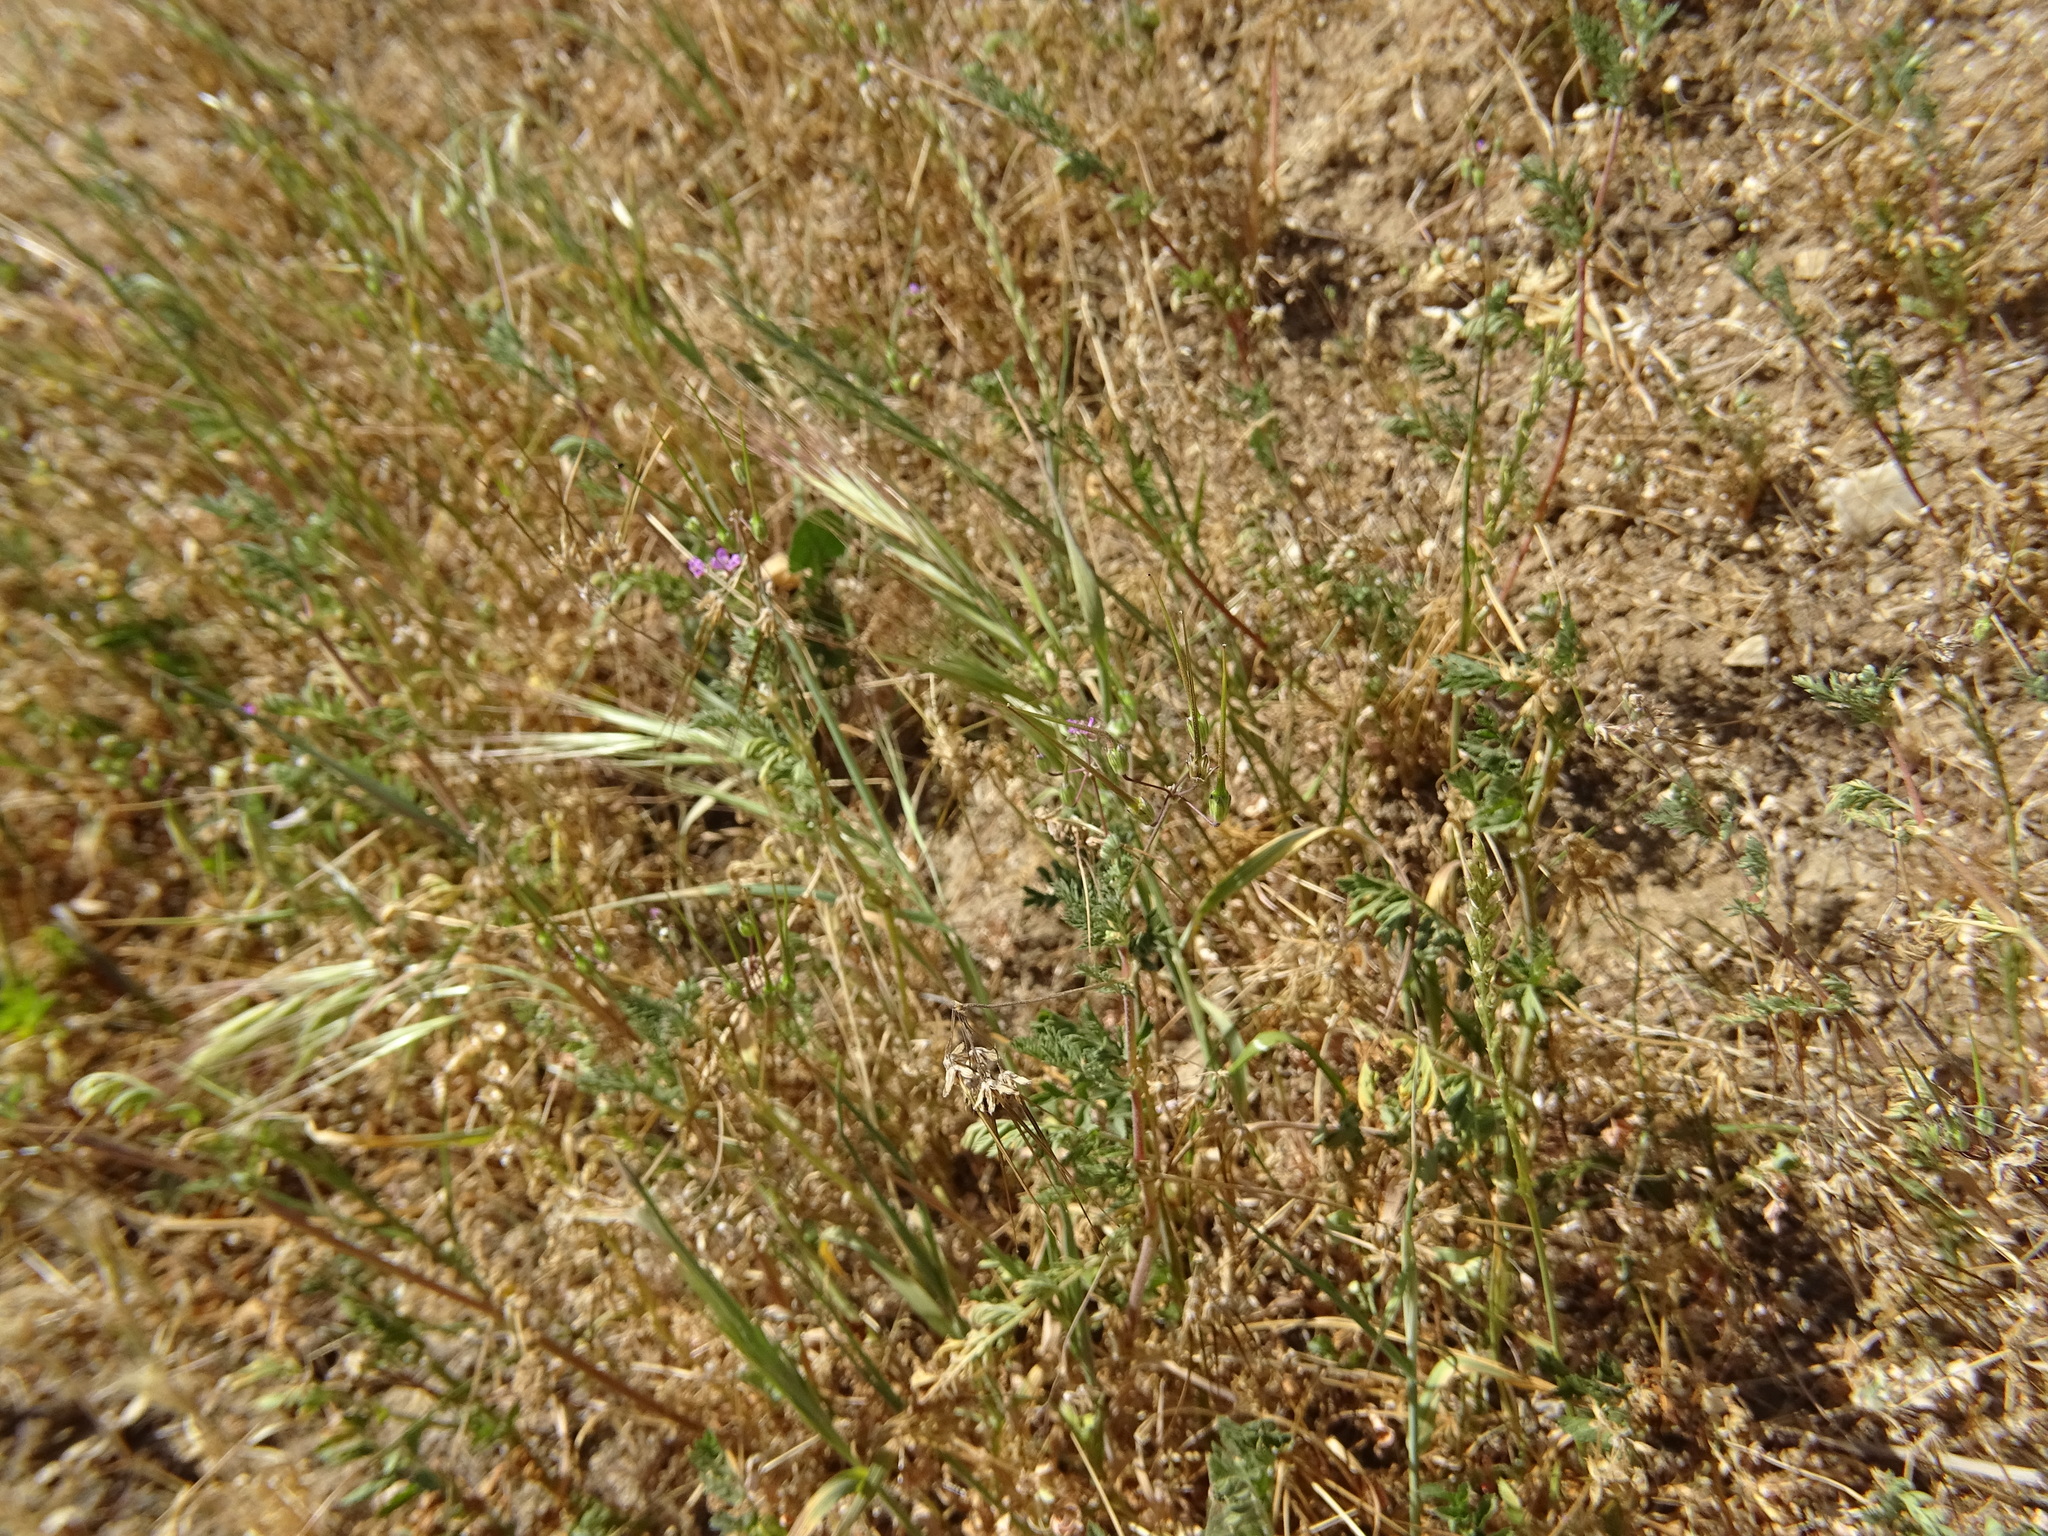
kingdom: Plantae
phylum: Tracheophyta
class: Magnoliopsida
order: Geraniales
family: Geraniaceae
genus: Erodium
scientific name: Erodium cicutarium
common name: Common stork's-bill
